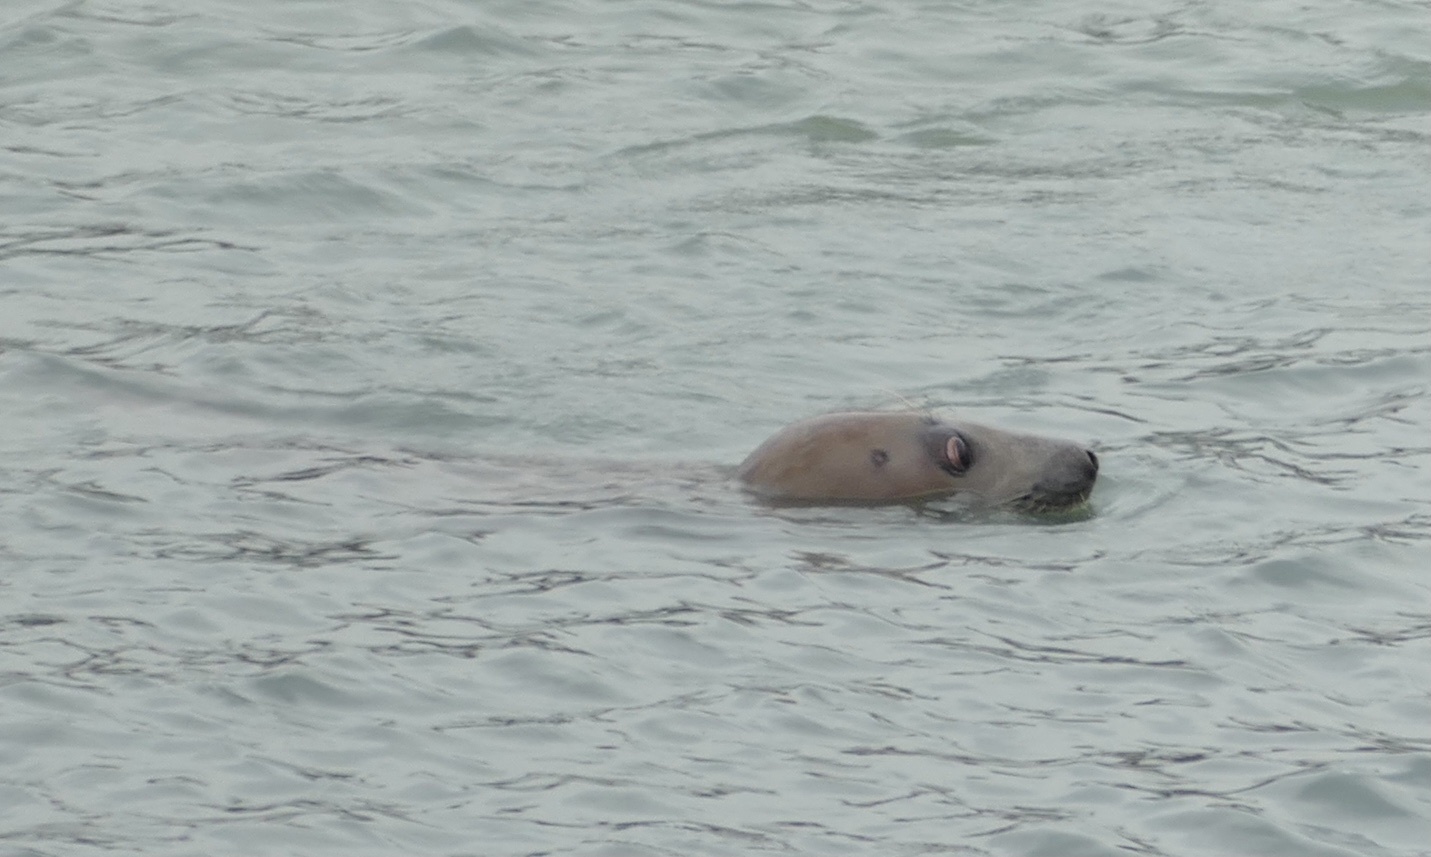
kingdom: Animalia
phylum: Chordata
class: Mammalia
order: Carnivora
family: Phocidae
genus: Halichoerus
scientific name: Halichoerus grypus
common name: Grey seal
